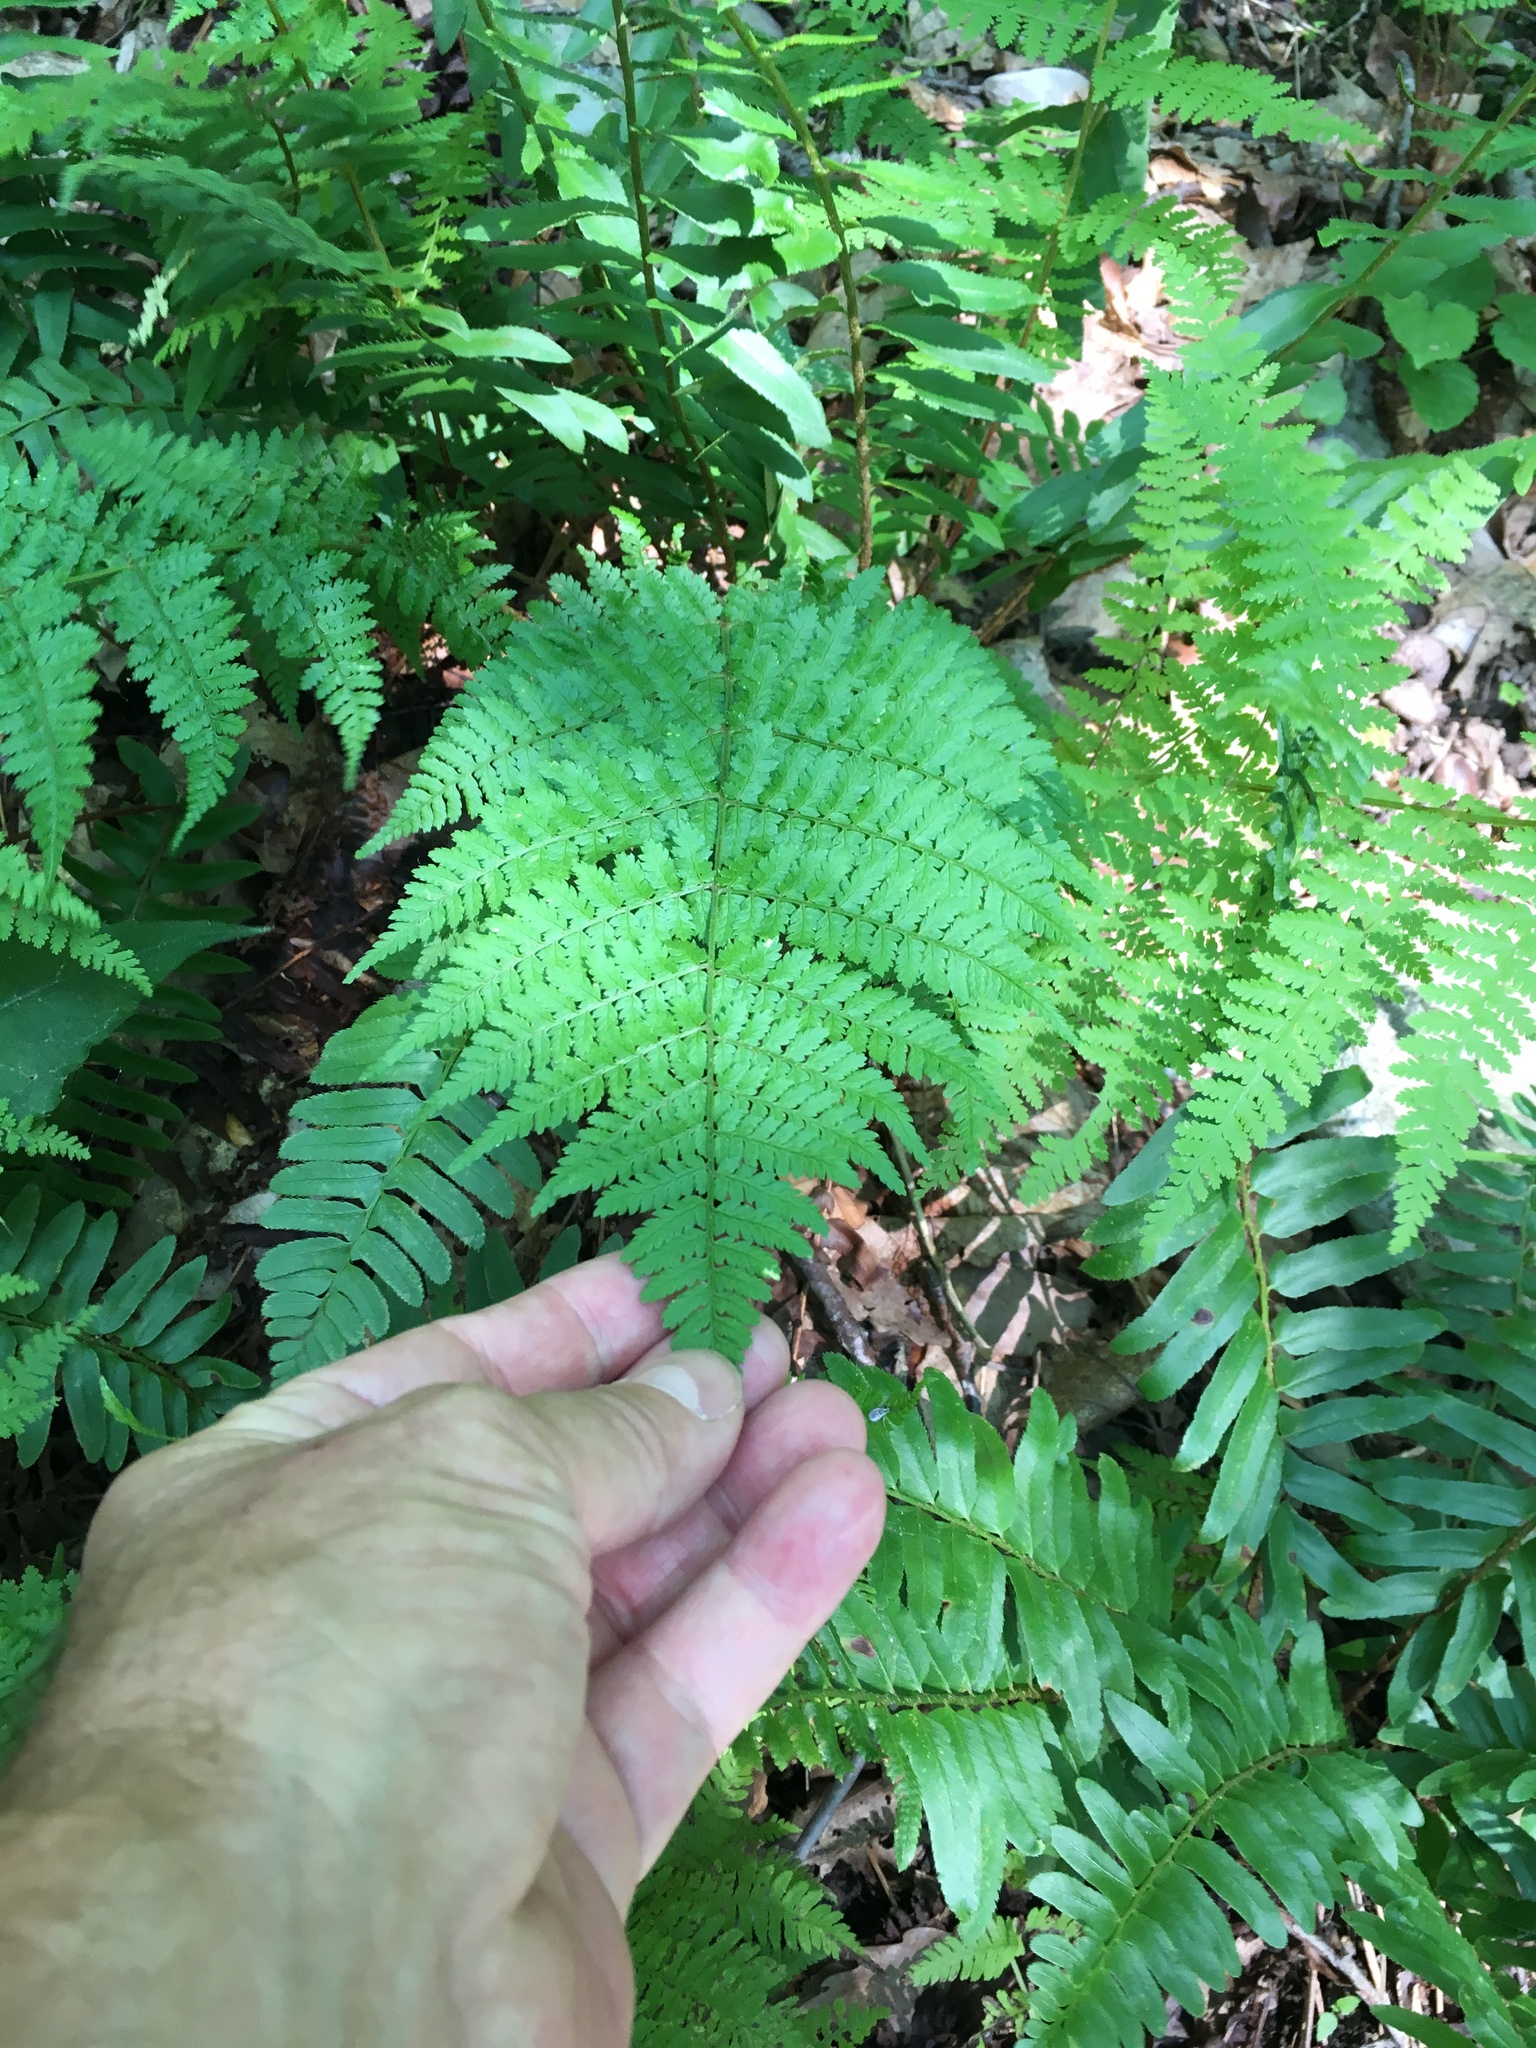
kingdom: Plantae
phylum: Tracheophyta
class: Polypodiopsida
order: Polypodiales
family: Dryopteridaceae
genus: Dryopteris
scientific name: Dryopteris intermedia
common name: Evergreen wood fern
